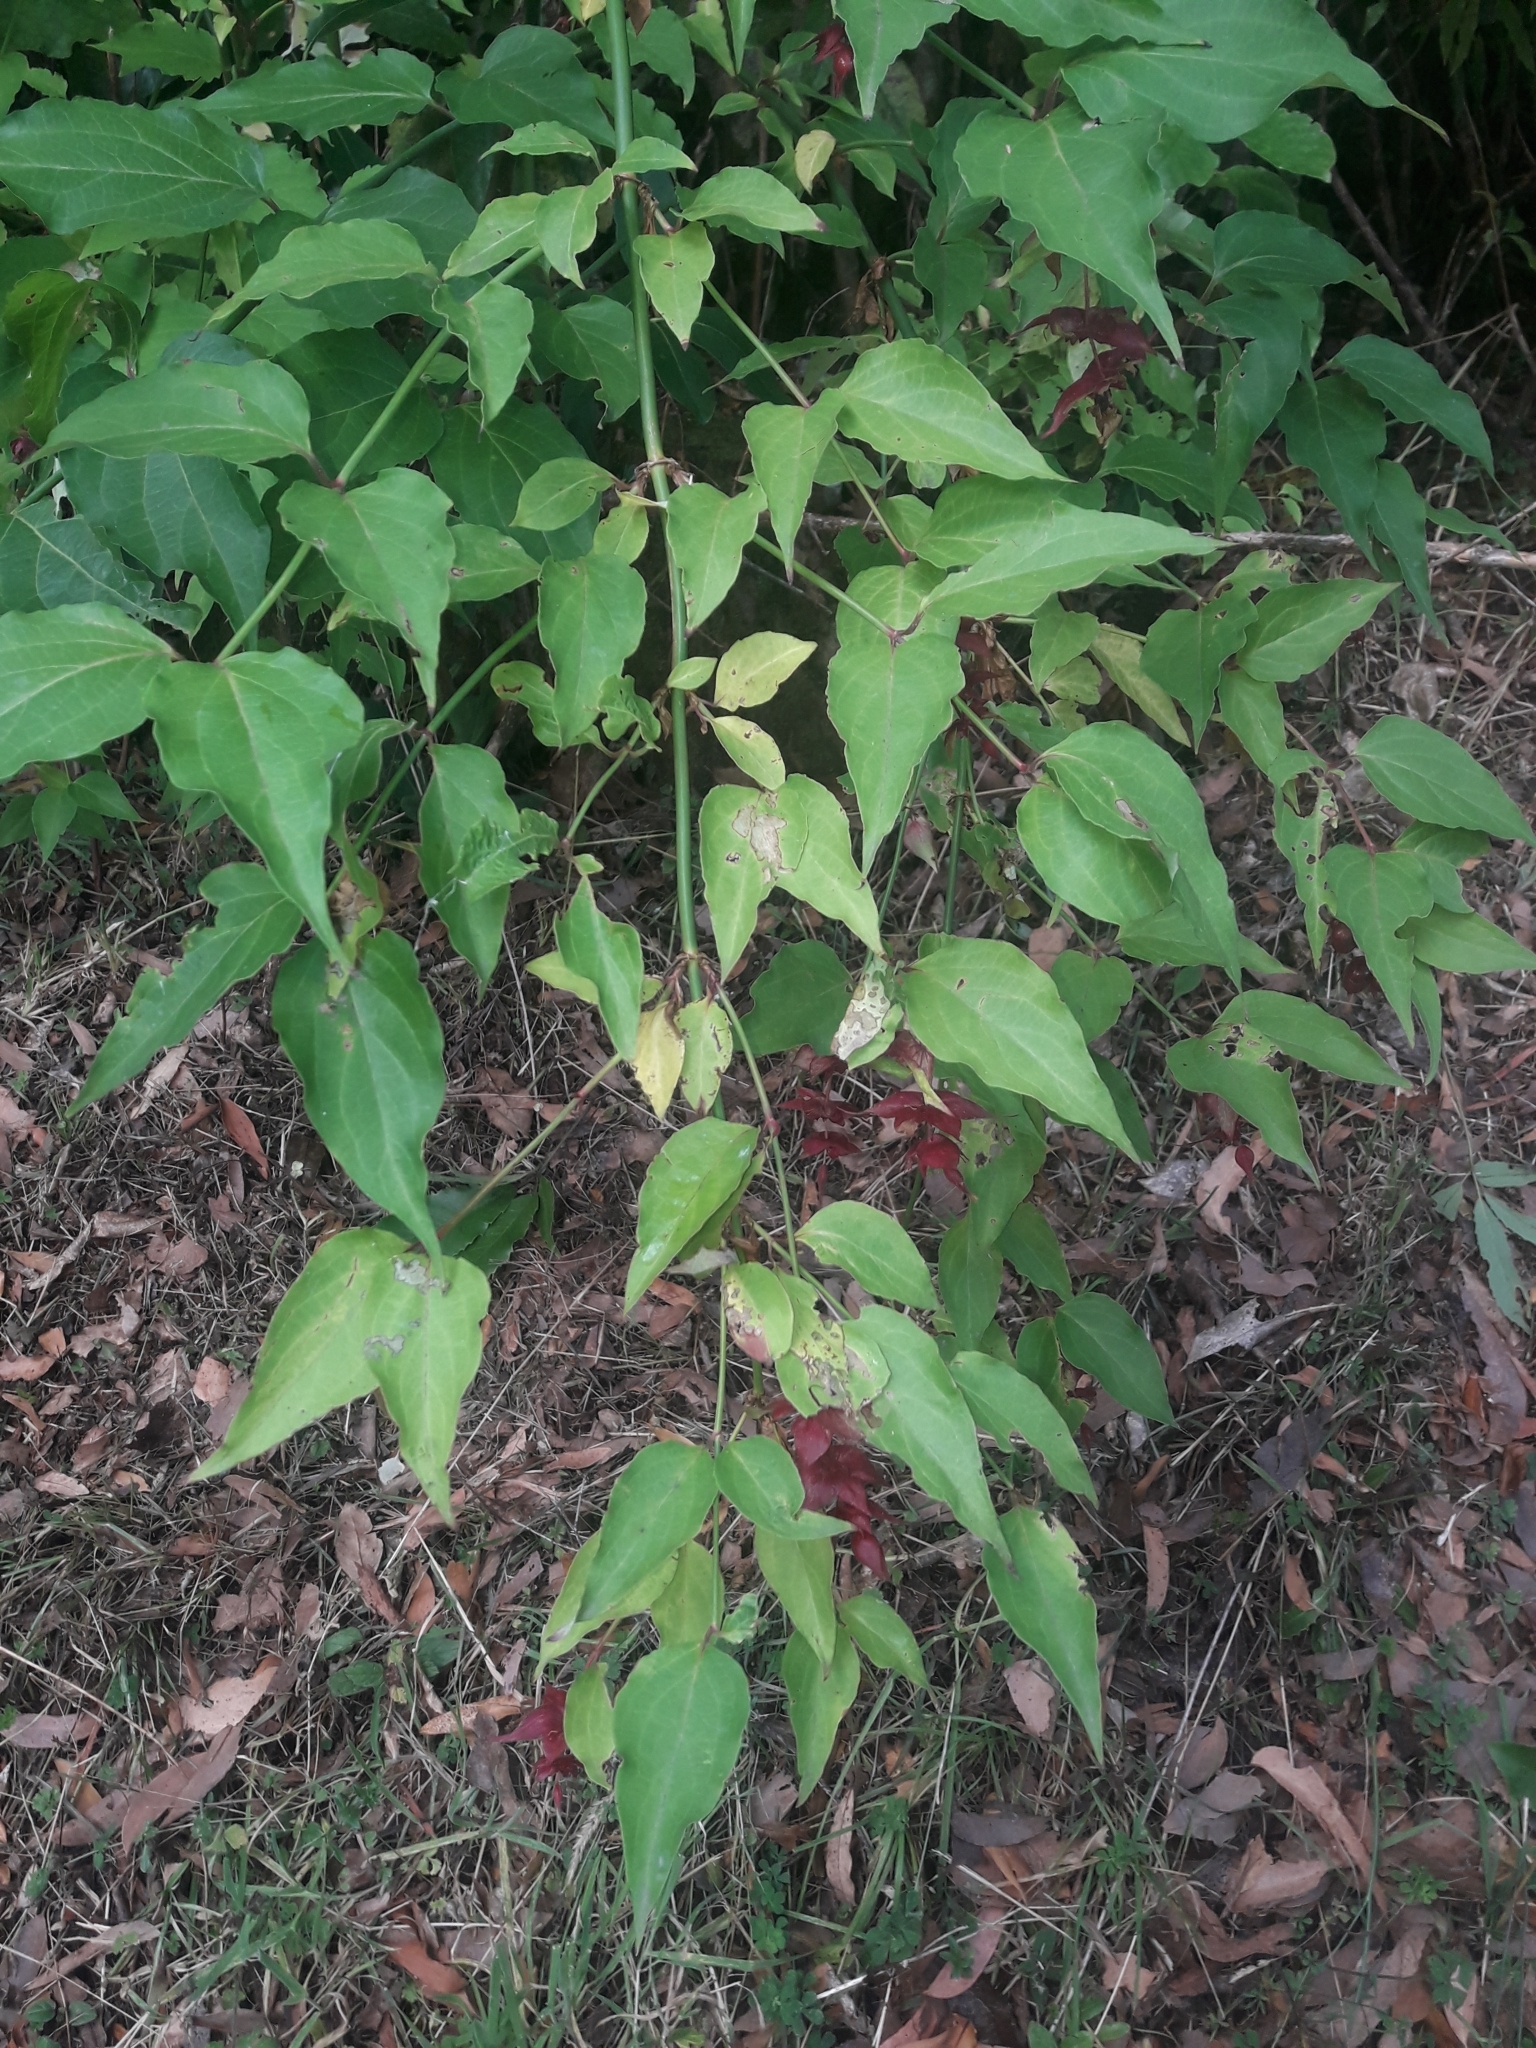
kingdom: Plantae
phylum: Tracheophyta
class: Magnoliopsida
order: Dipsacales
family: Caprifoliaceae
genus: Leycesteria
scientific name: Leycesteria formosa
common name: Himalayan honeysuckle
